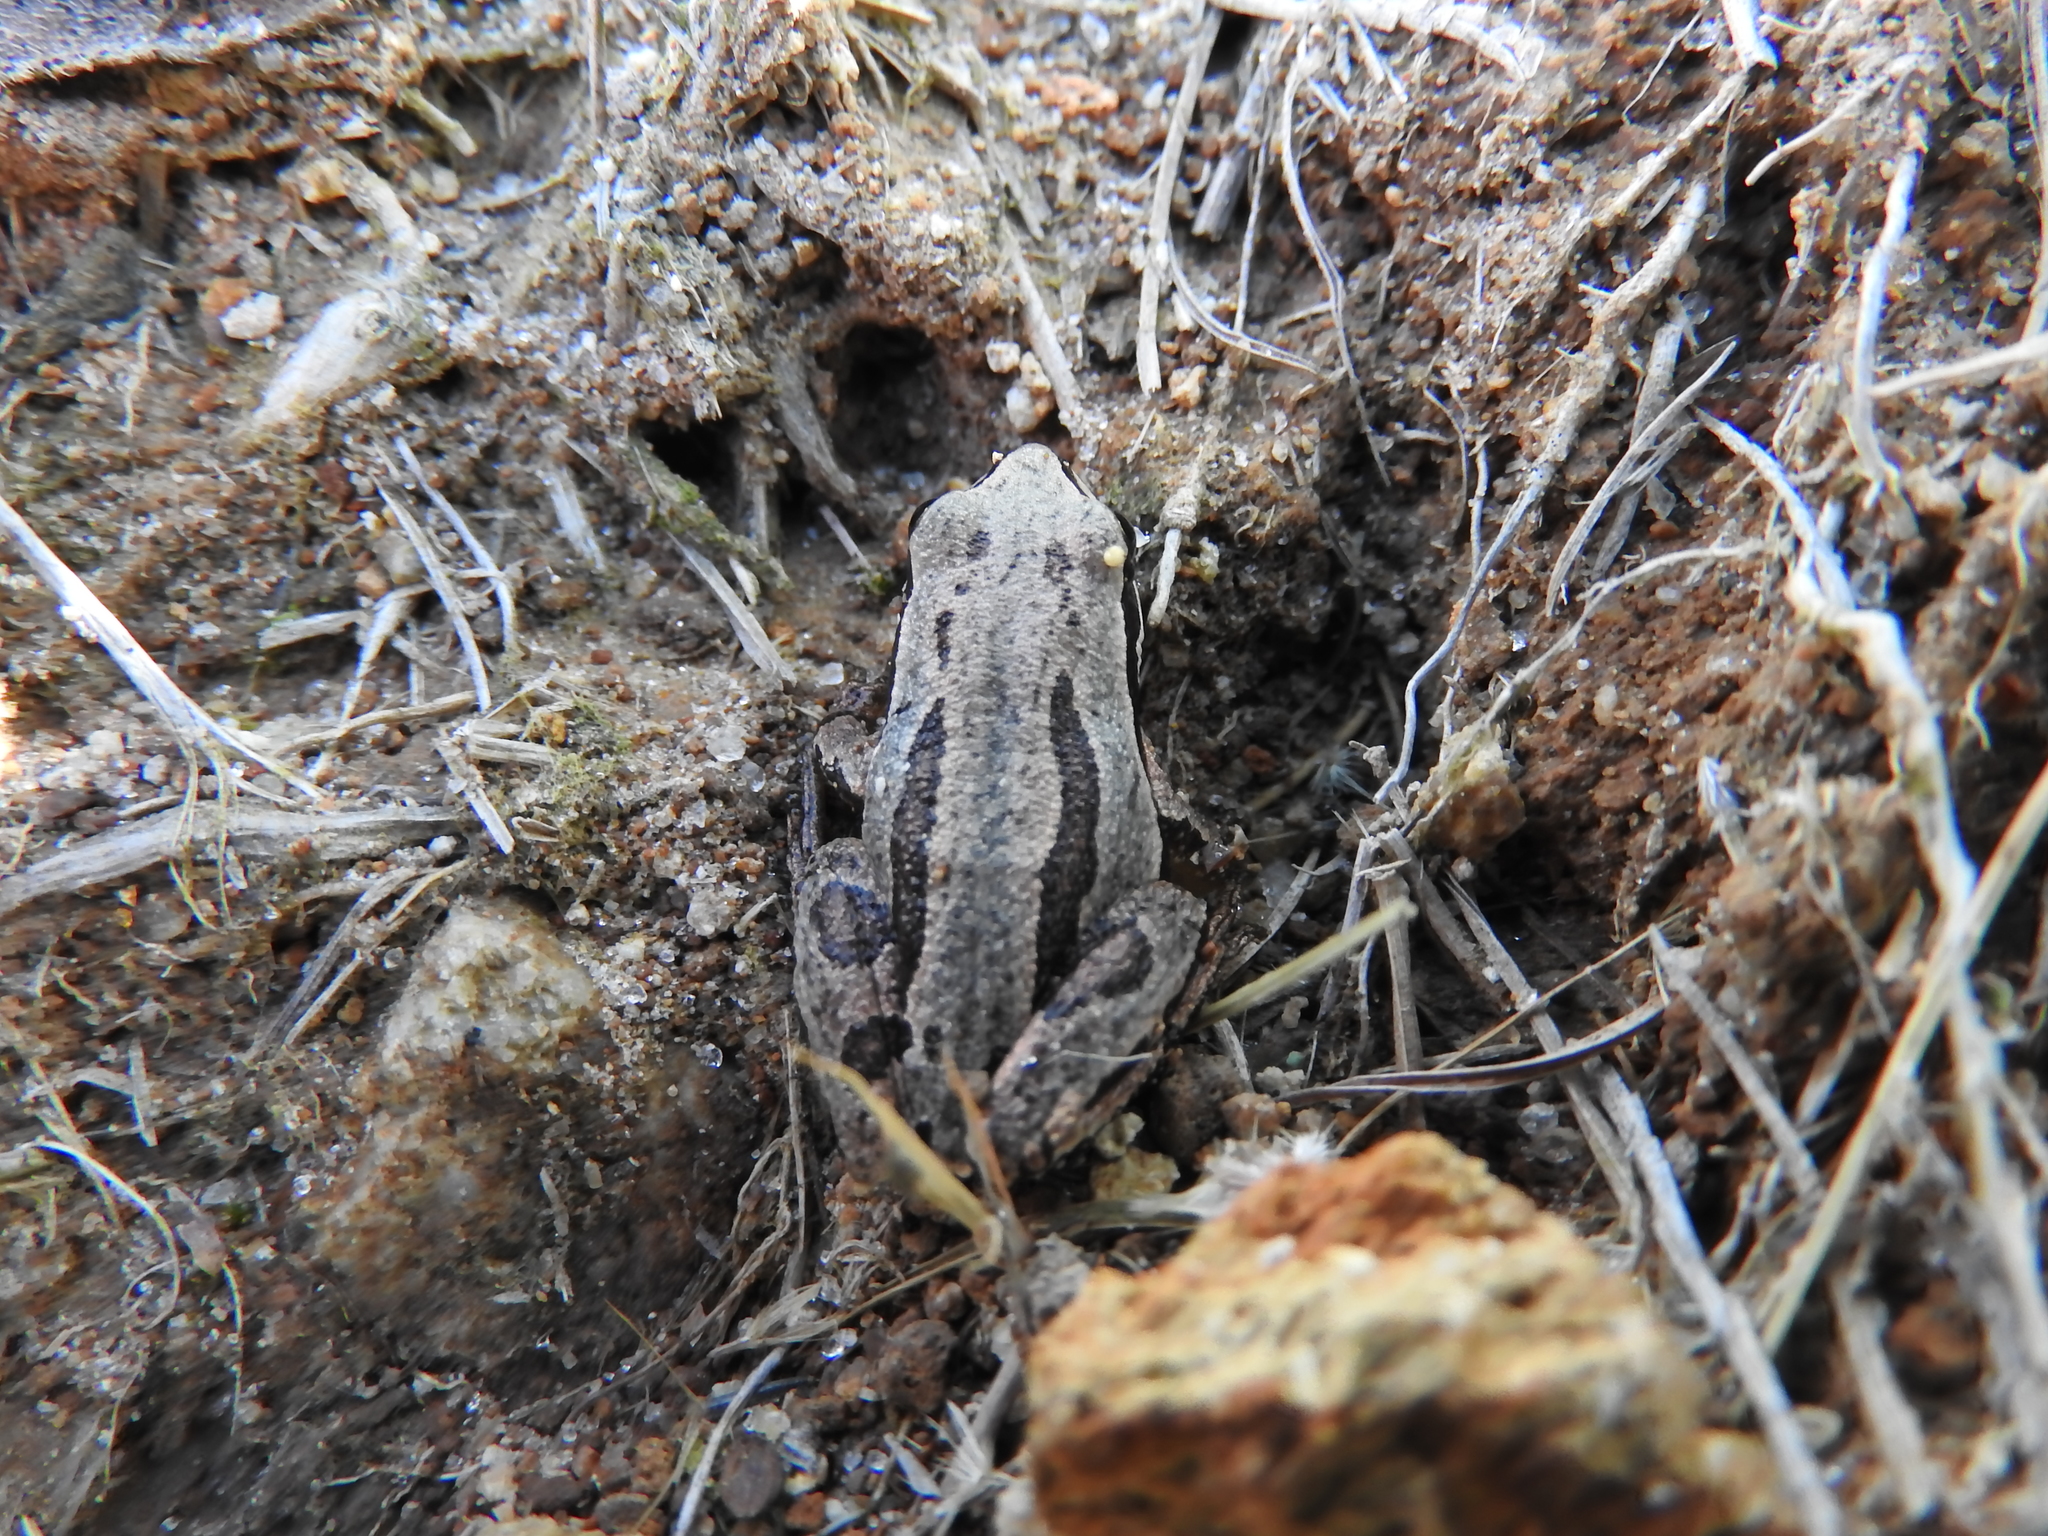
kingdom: Animalia
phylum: Chordata
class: Amphibia
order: Anura
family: Hylidae
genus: Dryophytes
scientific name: Dryophytes eximius
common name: Mountain treefrog
